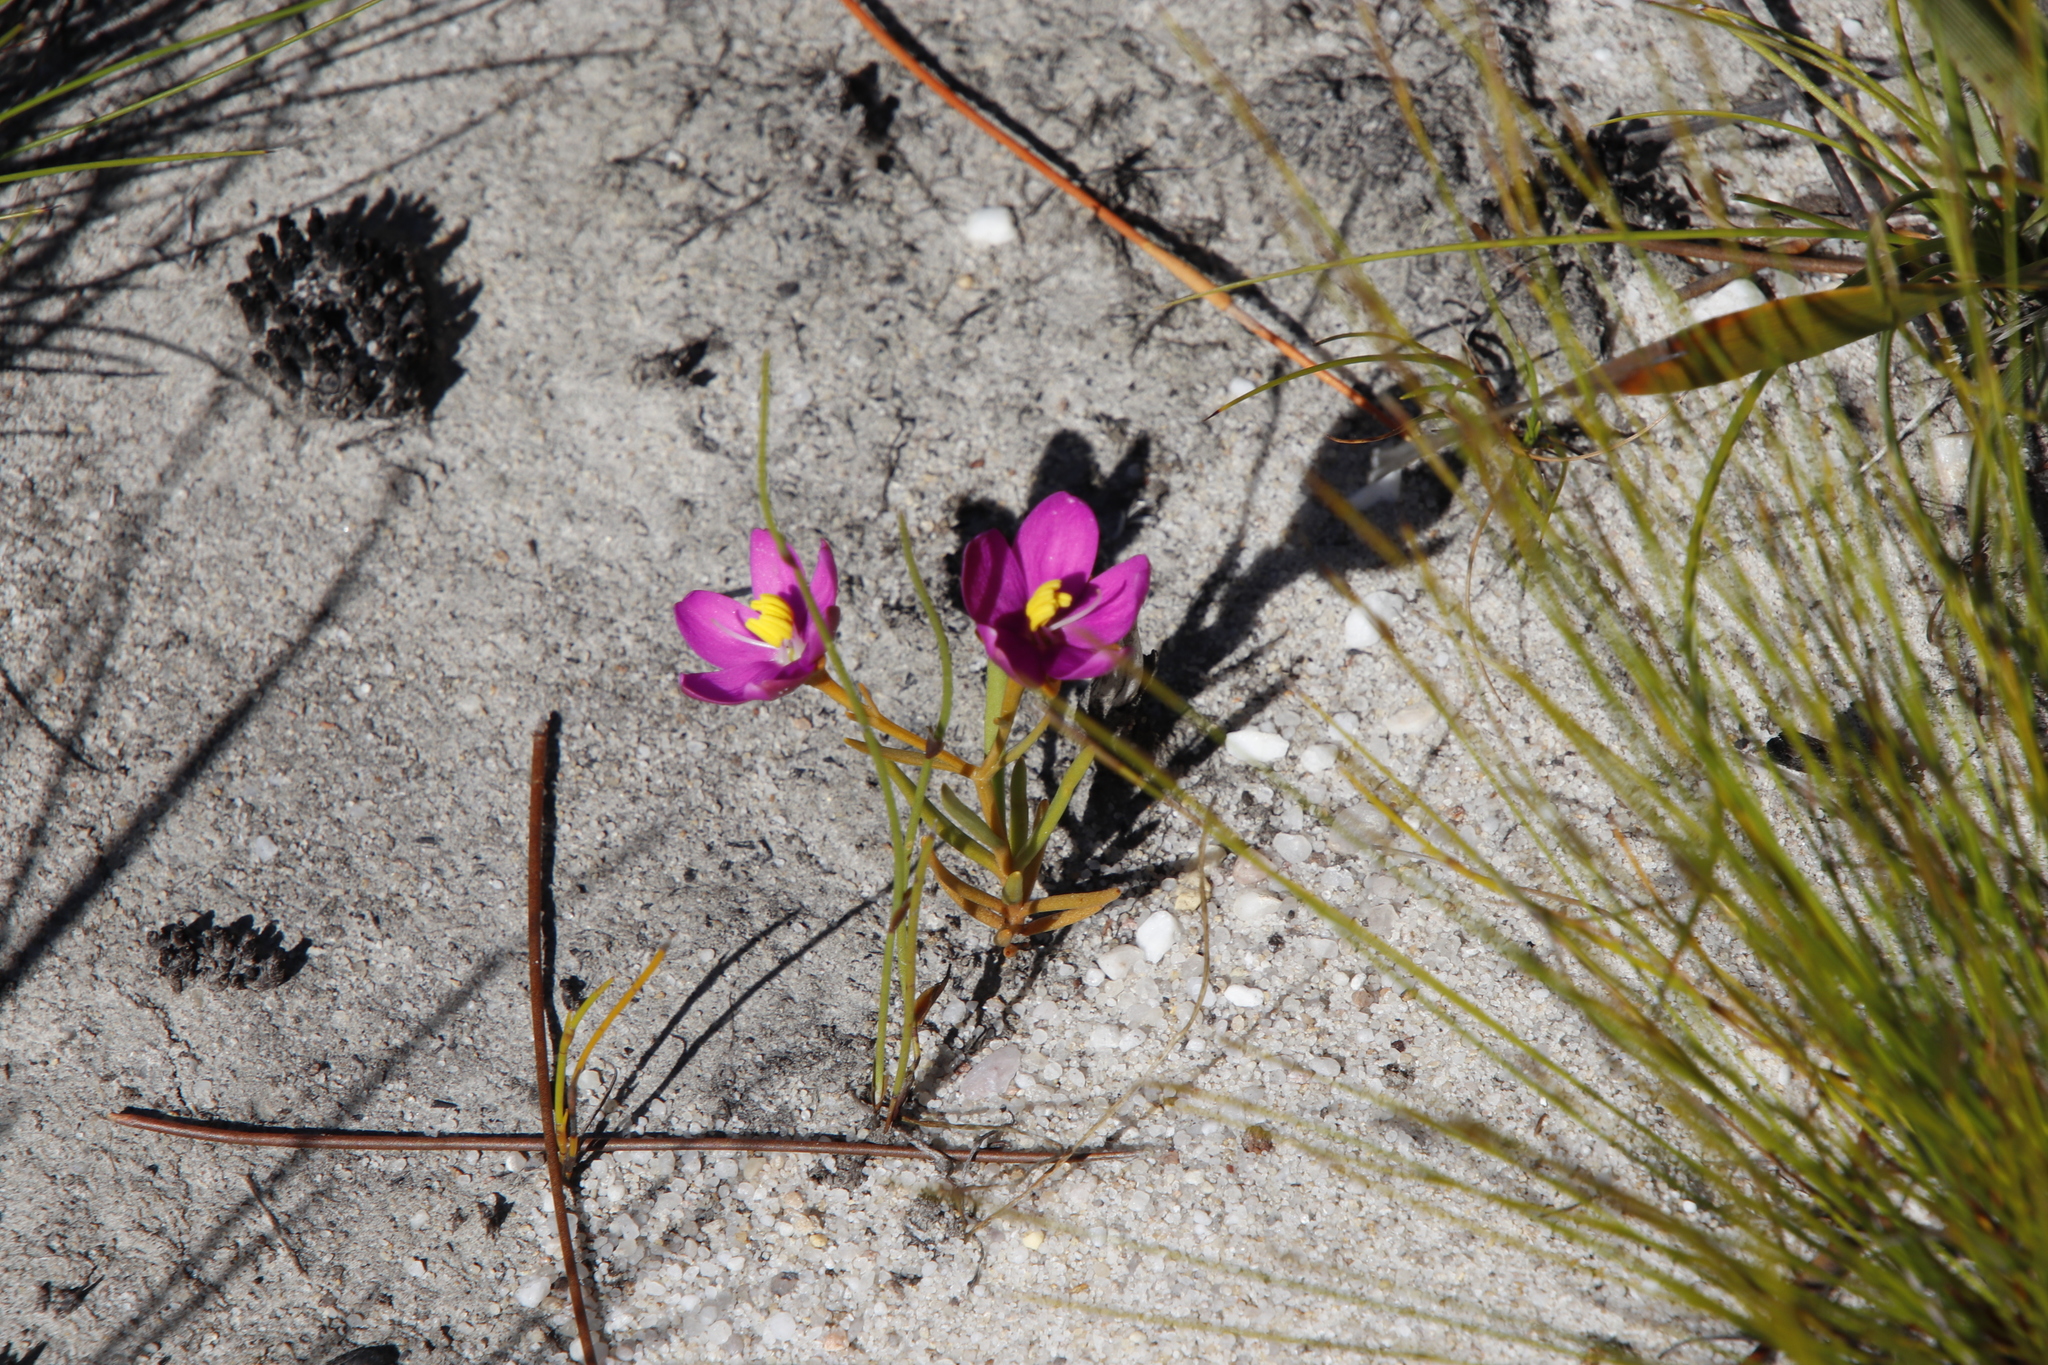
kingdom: Plantae
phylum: Tracheophyta
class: Magnoliopsida
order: Gentianales
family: Gentianaceae
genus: Chironia
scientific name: Chironia linoides
